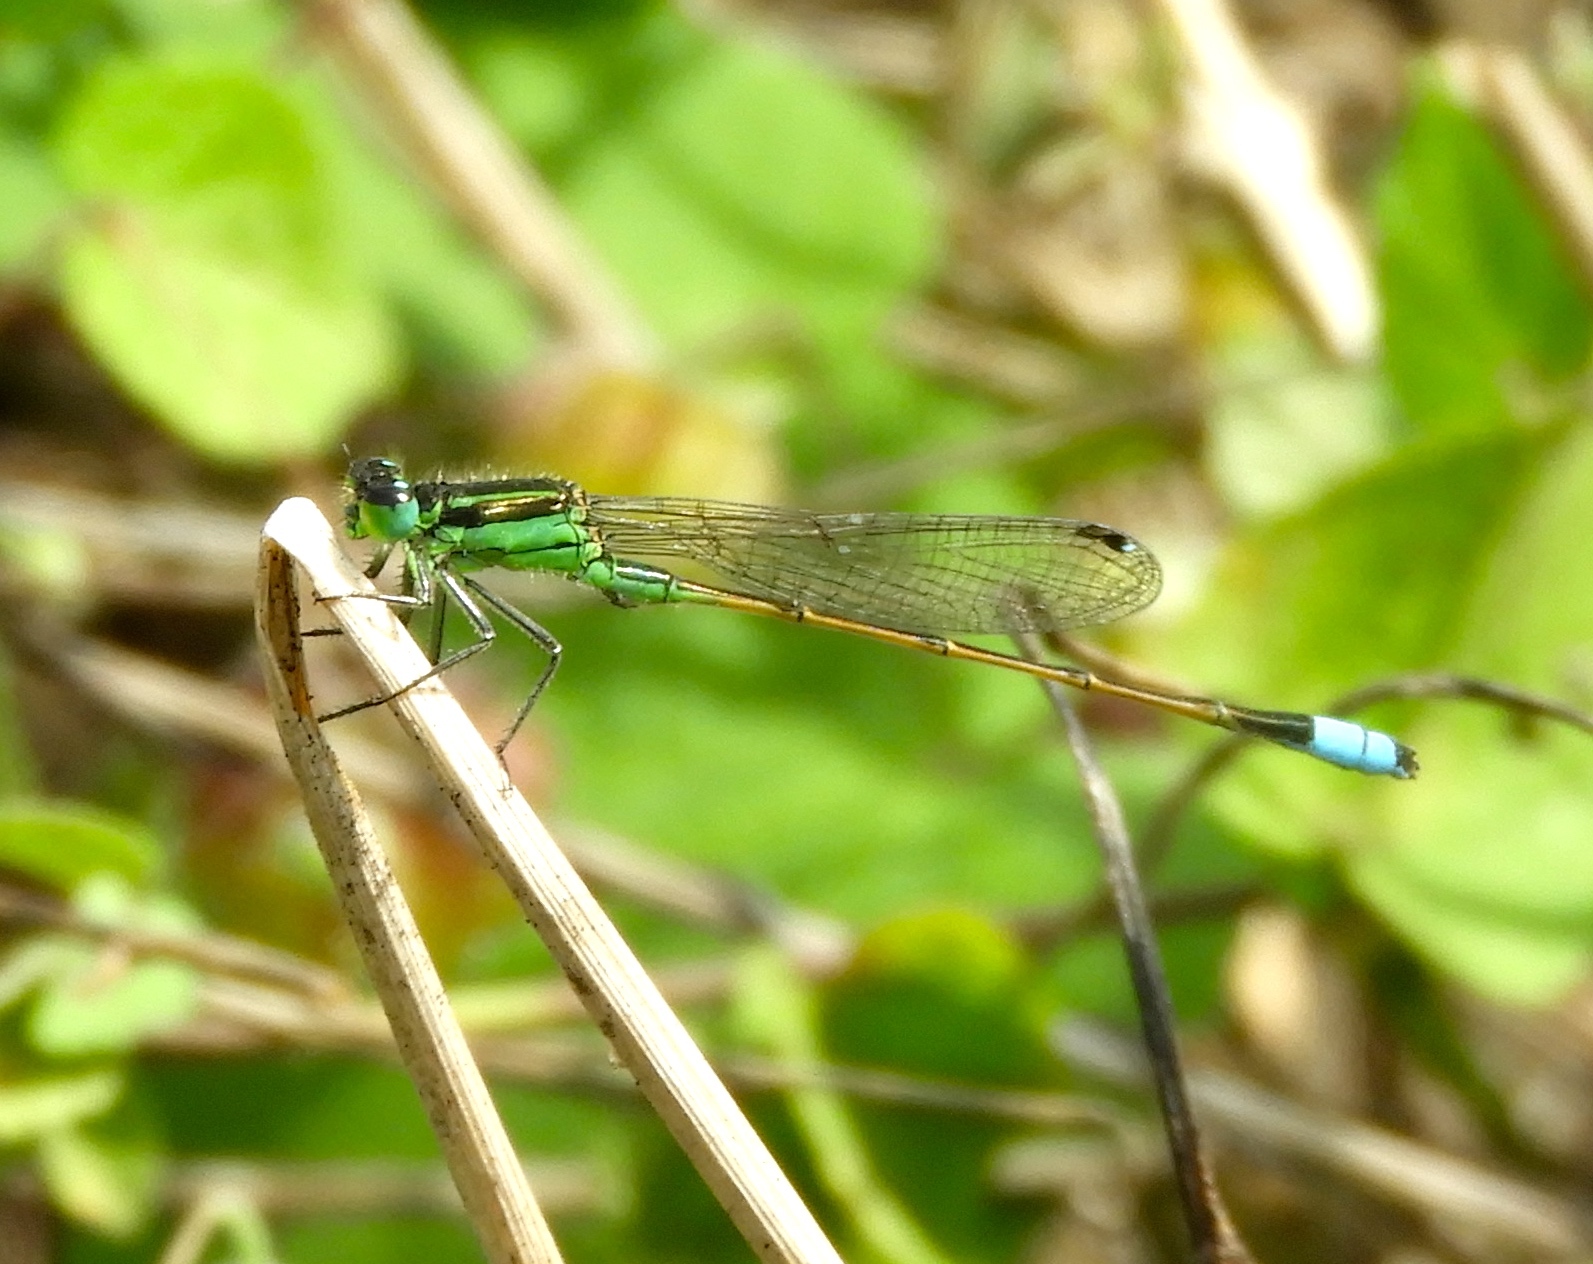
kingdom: Animalia
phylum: Arthropoda
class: Insecta
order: Odonata
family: Coenagrionidae
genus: Ischnura
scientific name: Ischnura ramburii
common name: Rambur's forktail
